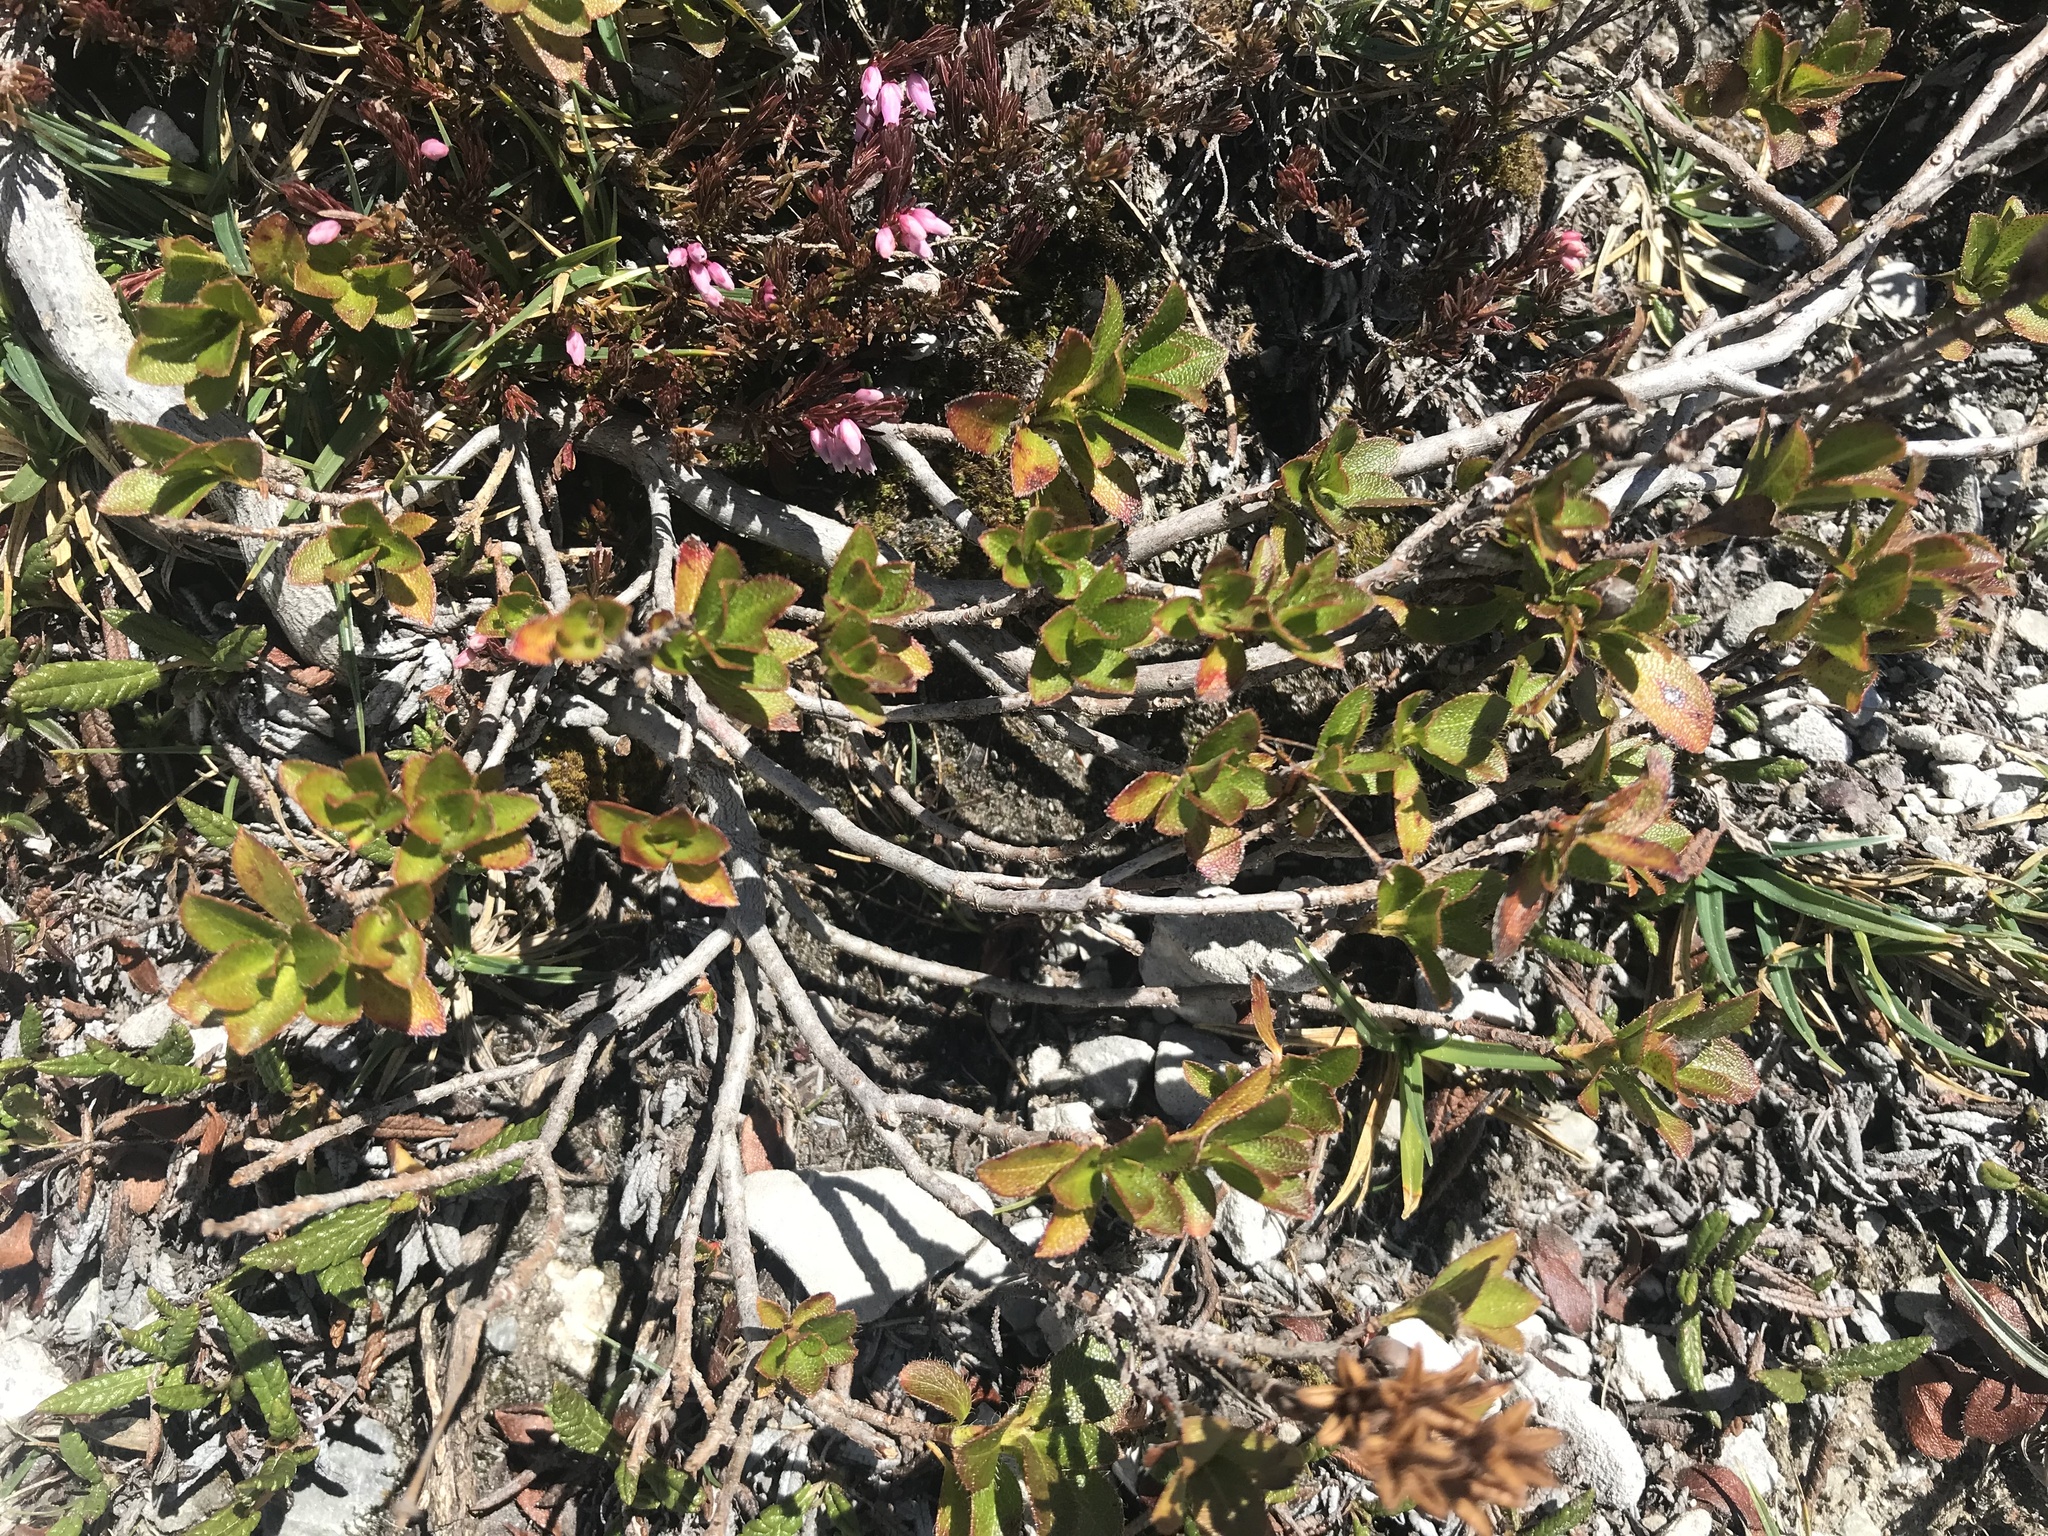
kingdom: Plantae
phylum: Tracheophyta
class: Magnoliopsida
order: Ericales
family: Ericaceae
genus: Rhododendron
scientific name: Rhododendron hirsutum
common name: Hairy alpenrose
